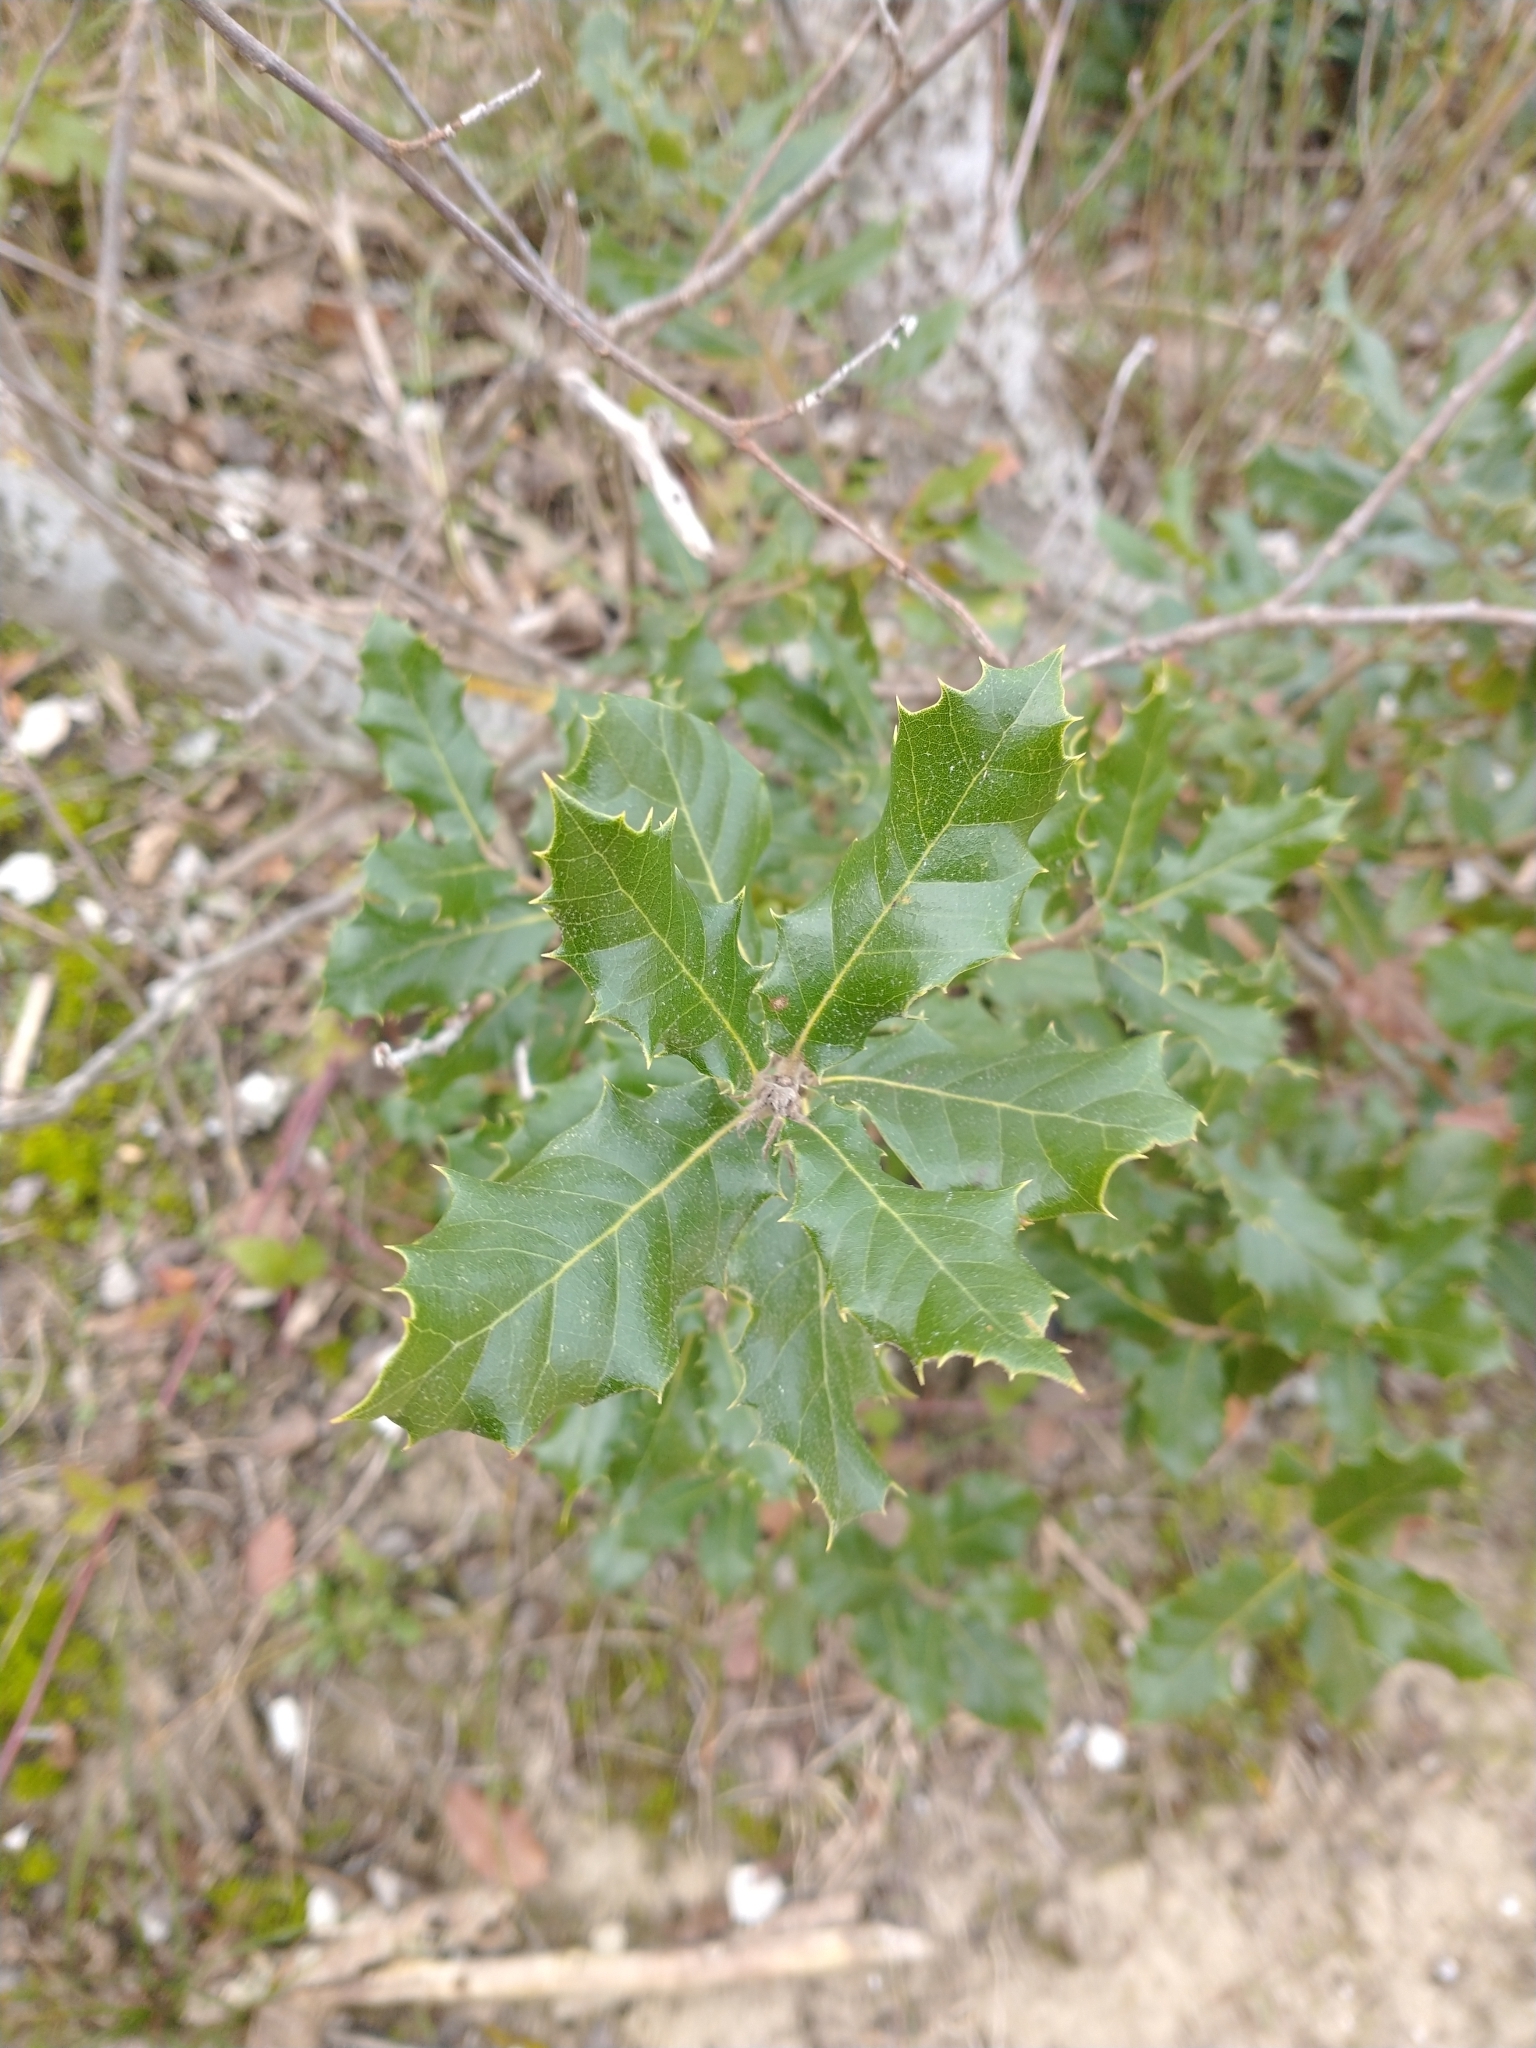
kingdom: Plantae
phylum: Tracheophyta
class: Magnoliopsida
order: Fagales
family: Fagaceae
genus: Quercus
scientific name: Quercus ilex
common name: Evergreen oak
